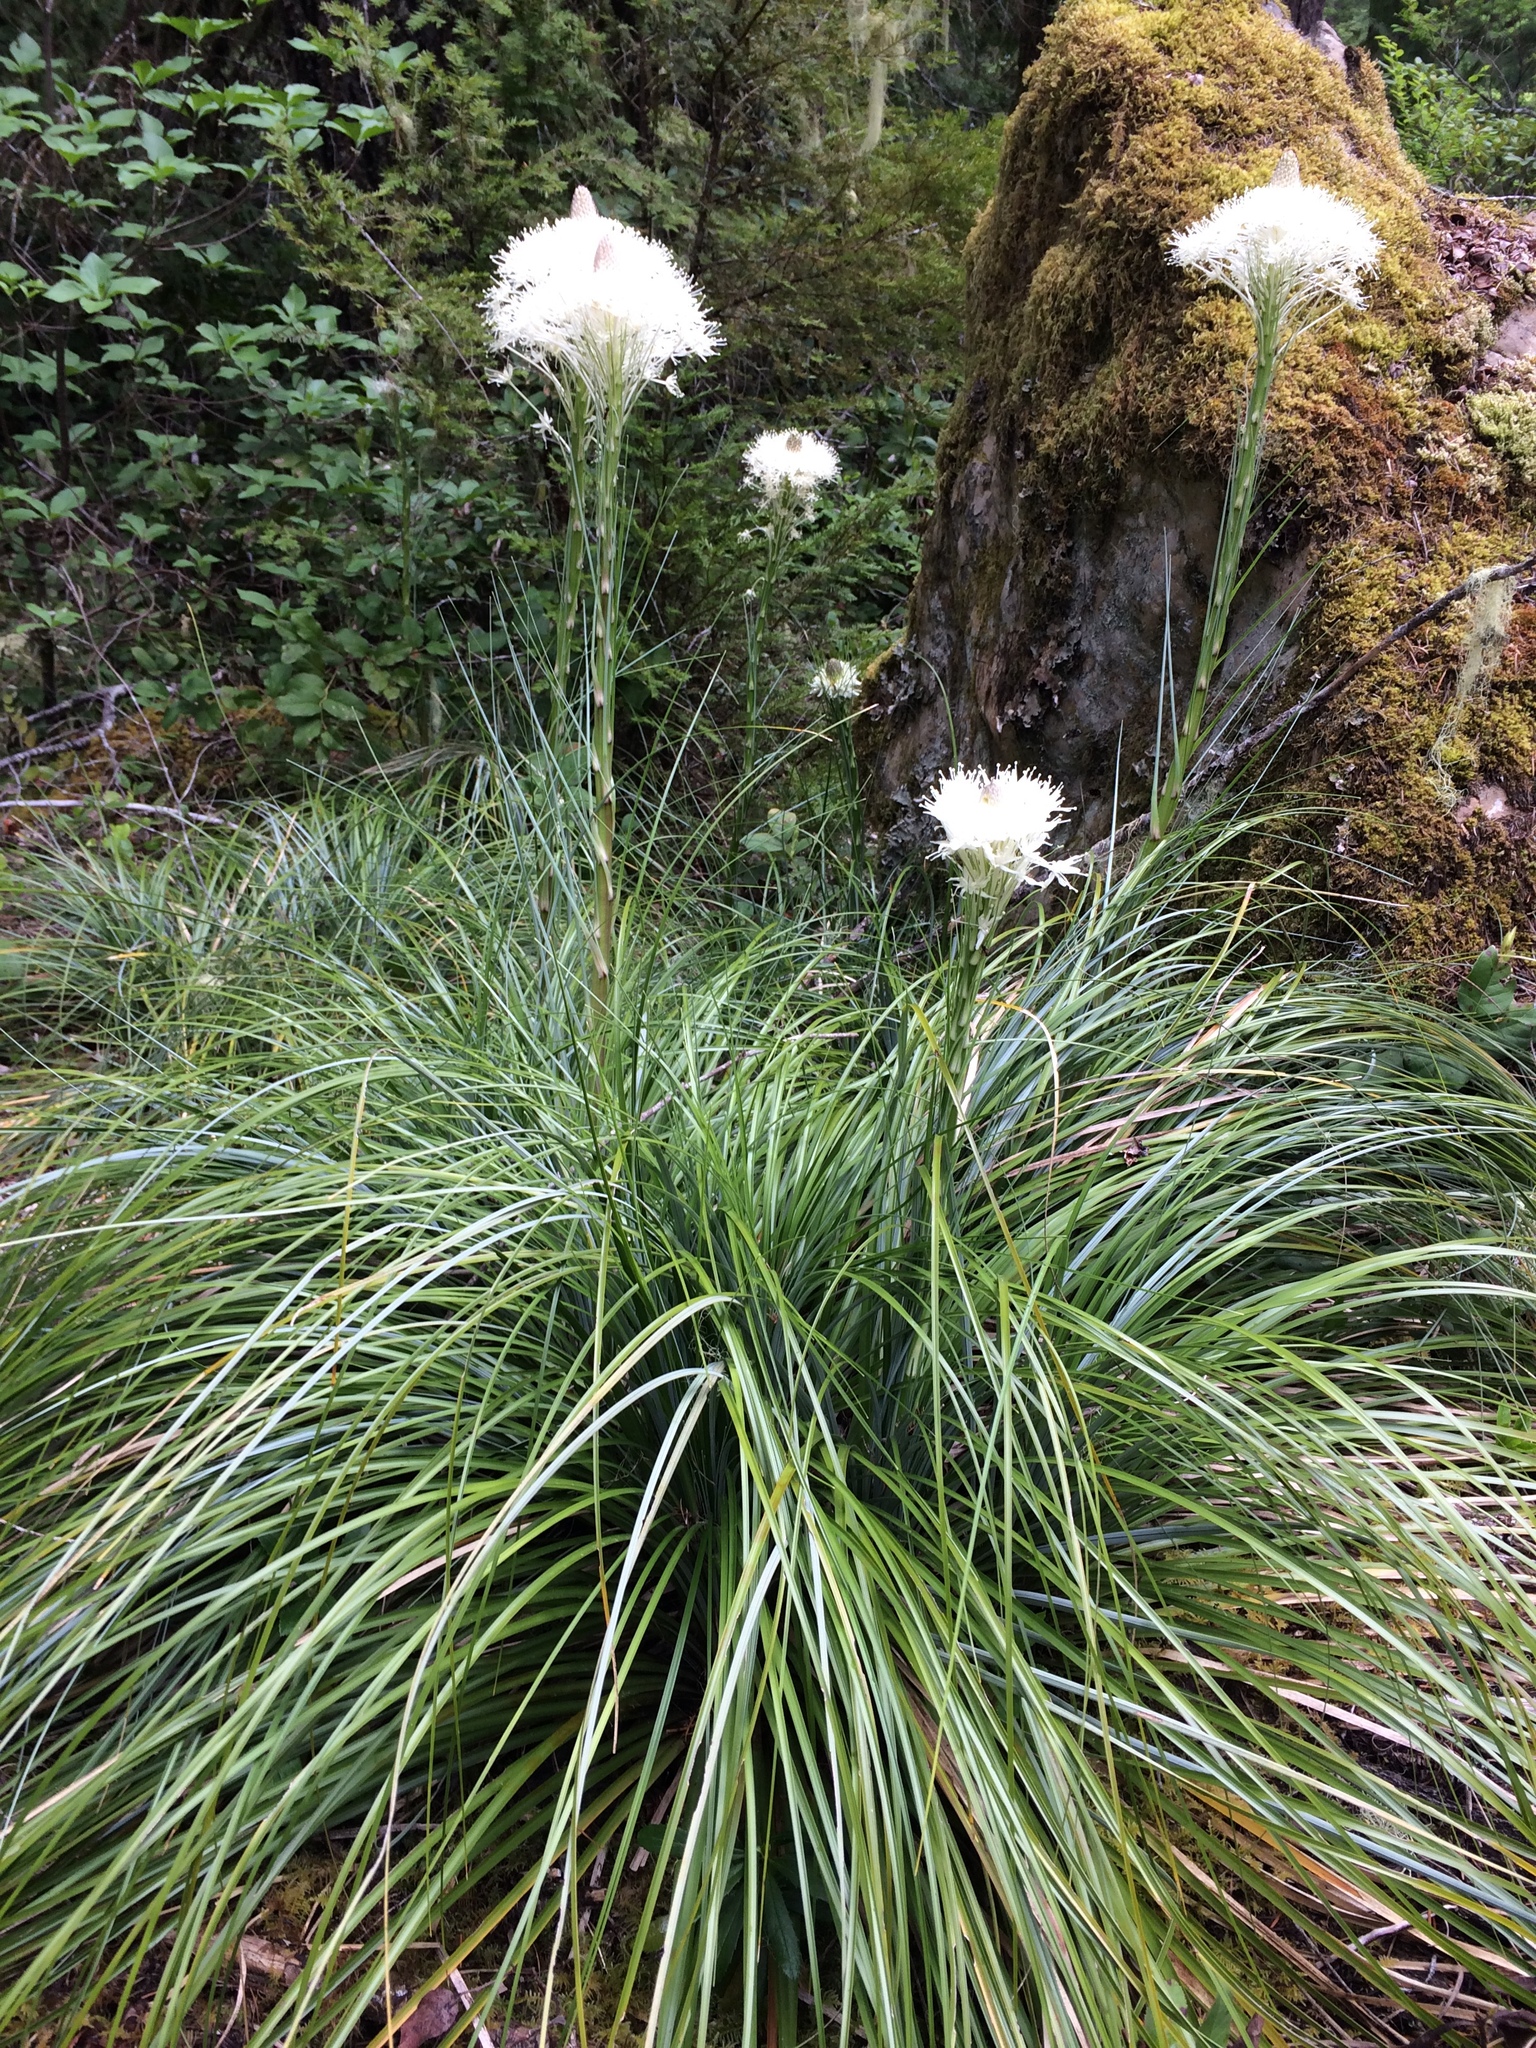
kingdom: Plantae
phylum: Tracheophyta
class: Liliopsida
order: Liliales
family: Melanthiaceae
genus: Xerophyllum
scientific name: Xerophyllum tenax
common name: Bear-grass
